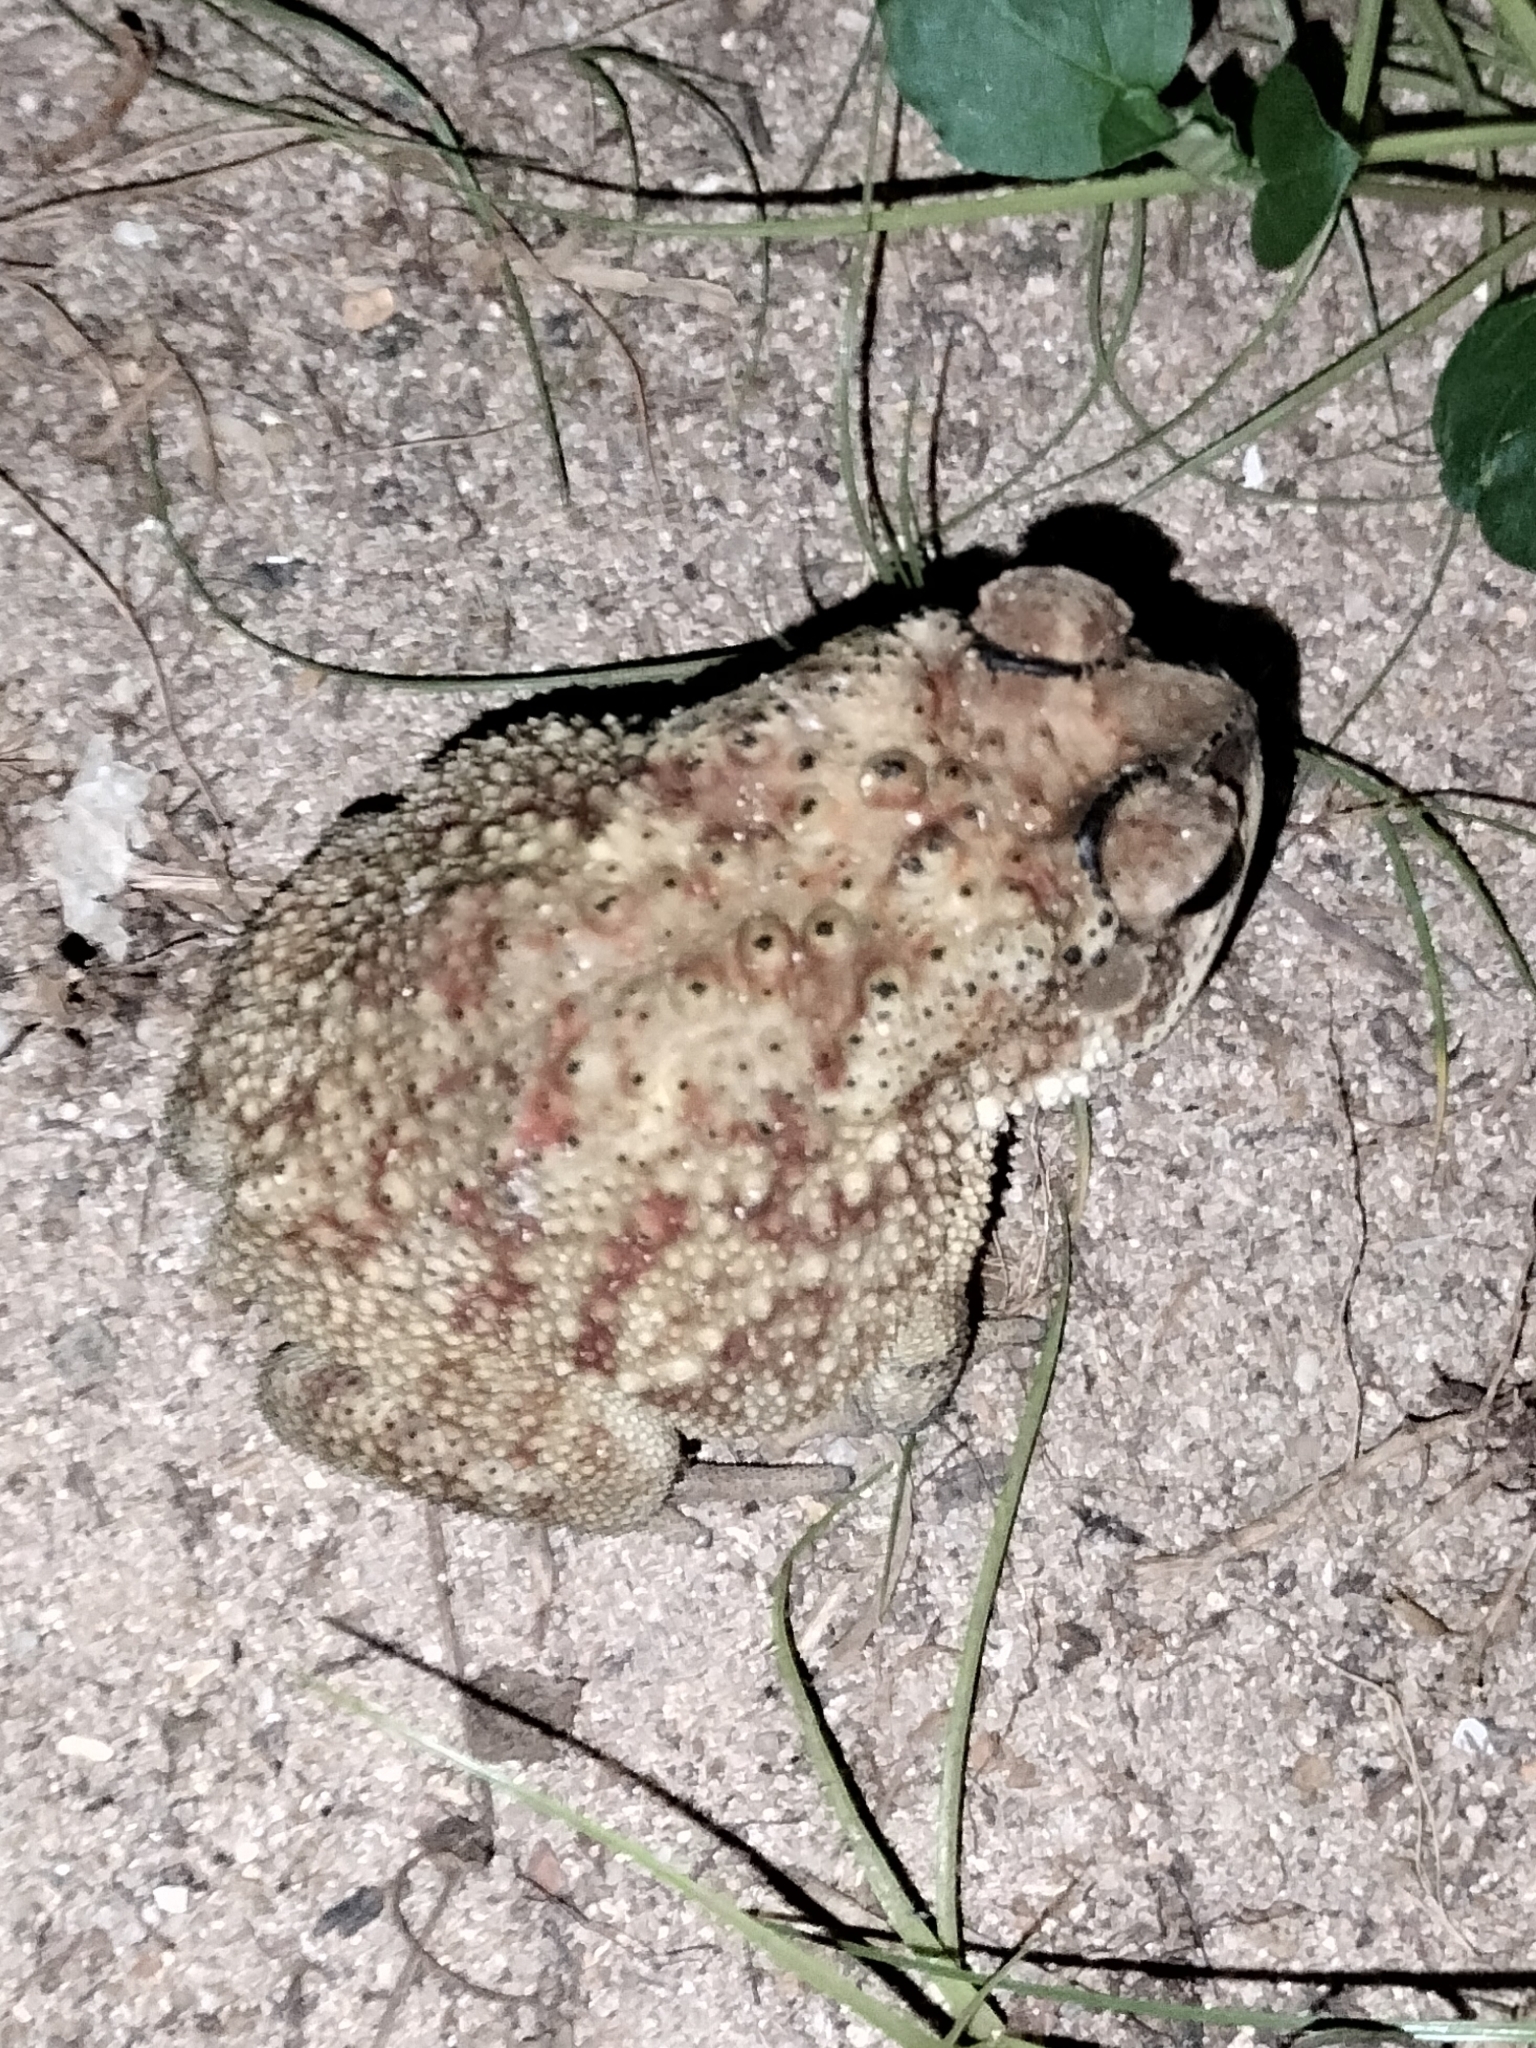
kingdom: Animalia
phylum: Chordata
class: Amphibia
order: Anura
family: Bufonidae
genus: Duttaphrynus
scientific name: Duttaphrynus melanostictus
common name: Common sunda toad
